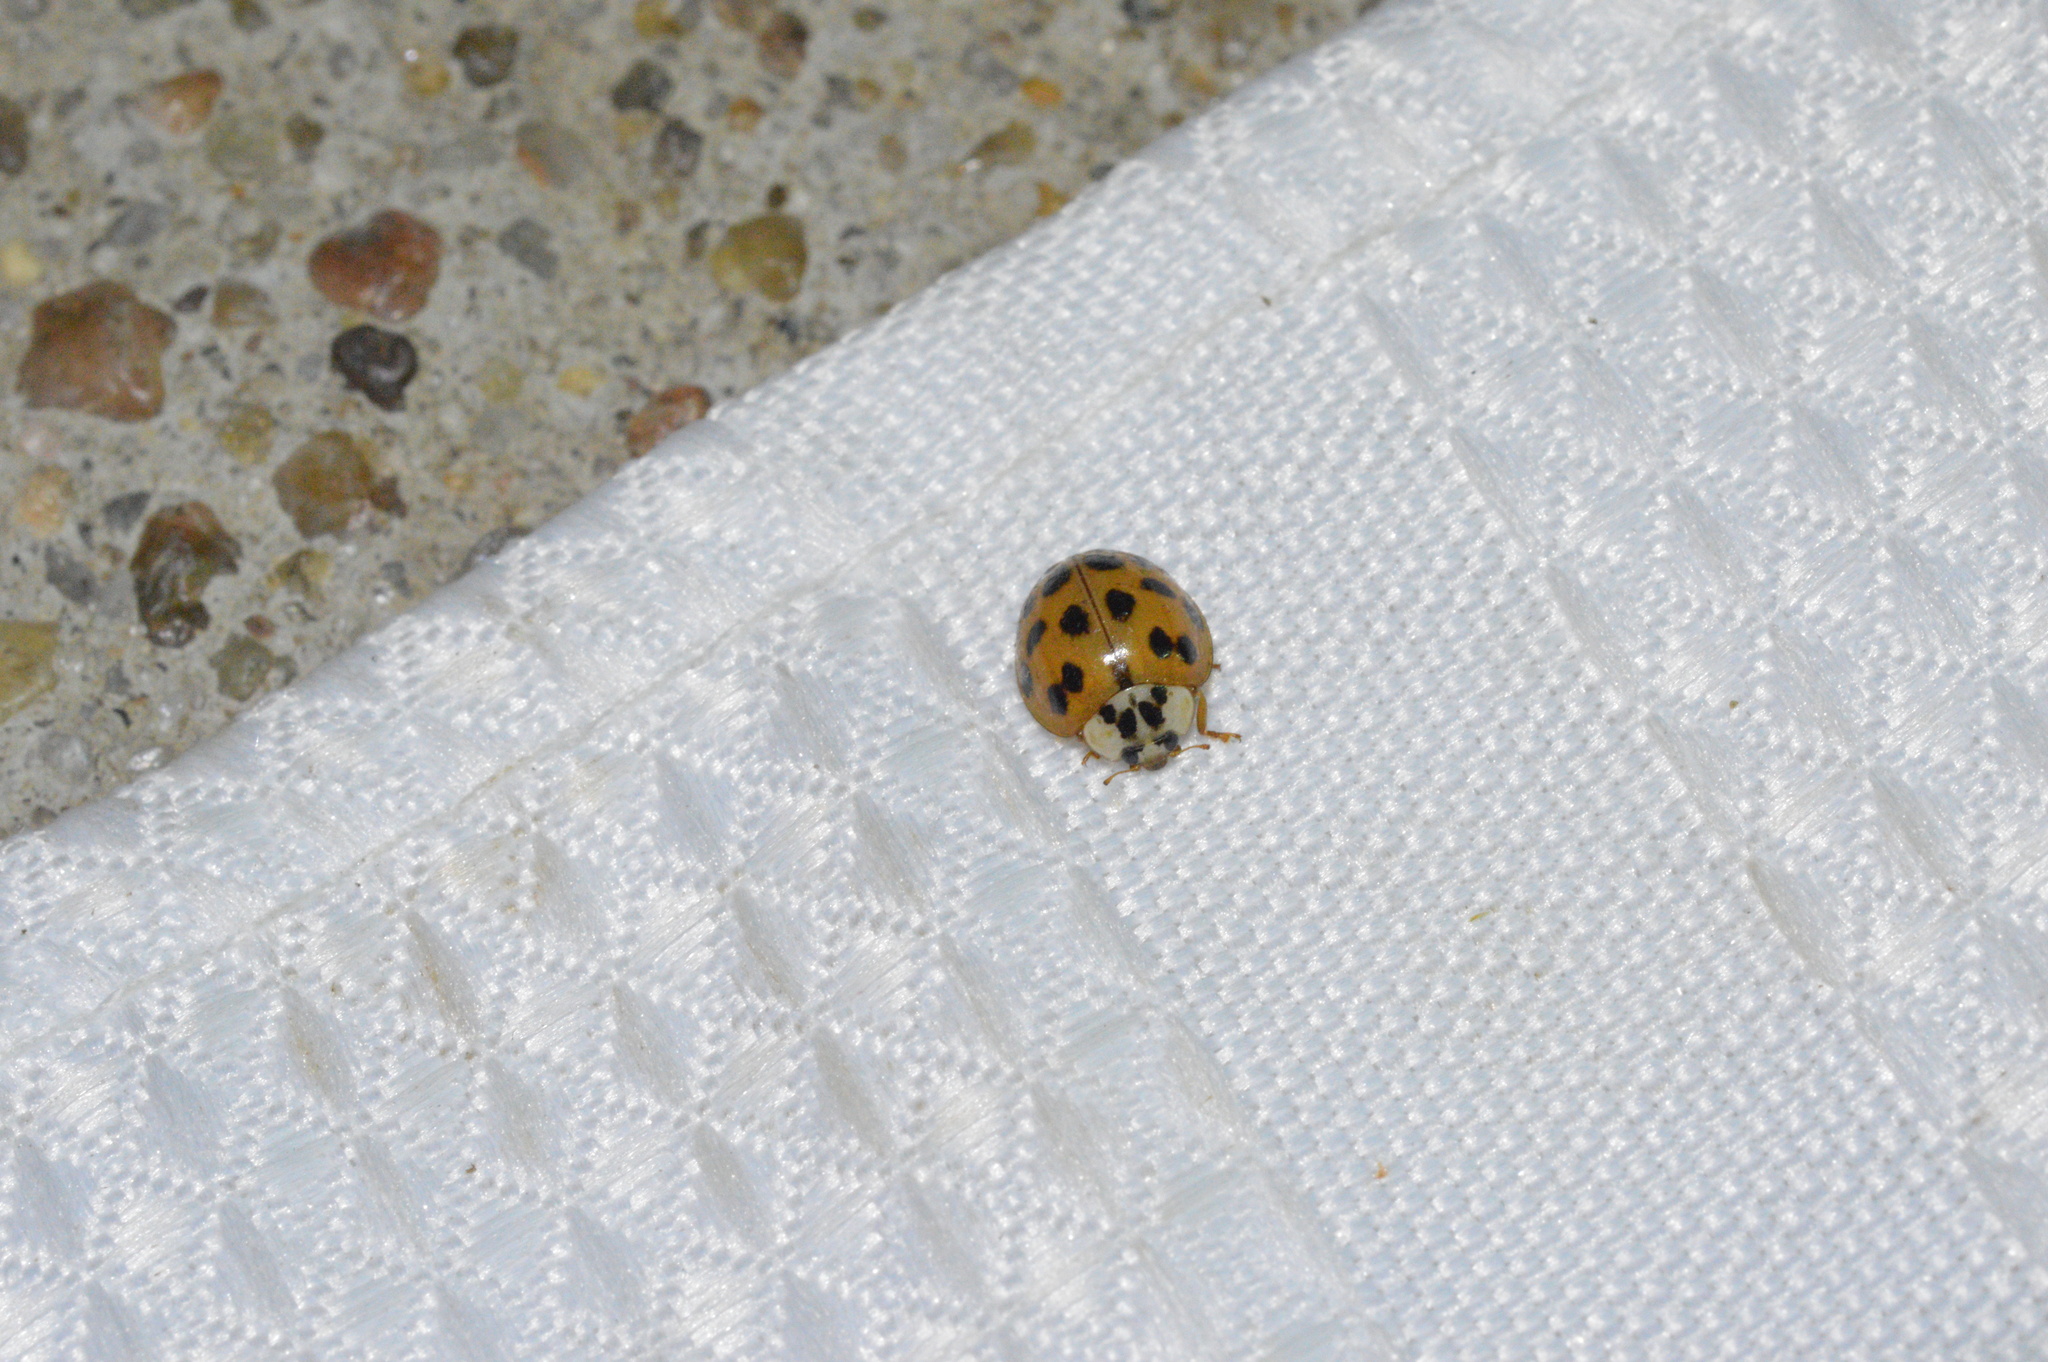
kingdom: Animalia
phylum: Arthropoda
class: Insecta
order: Coleoptera
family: Coccinellidae
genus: Harmonia
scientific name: Harmonia axyridis
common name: Harlequin ladybird
